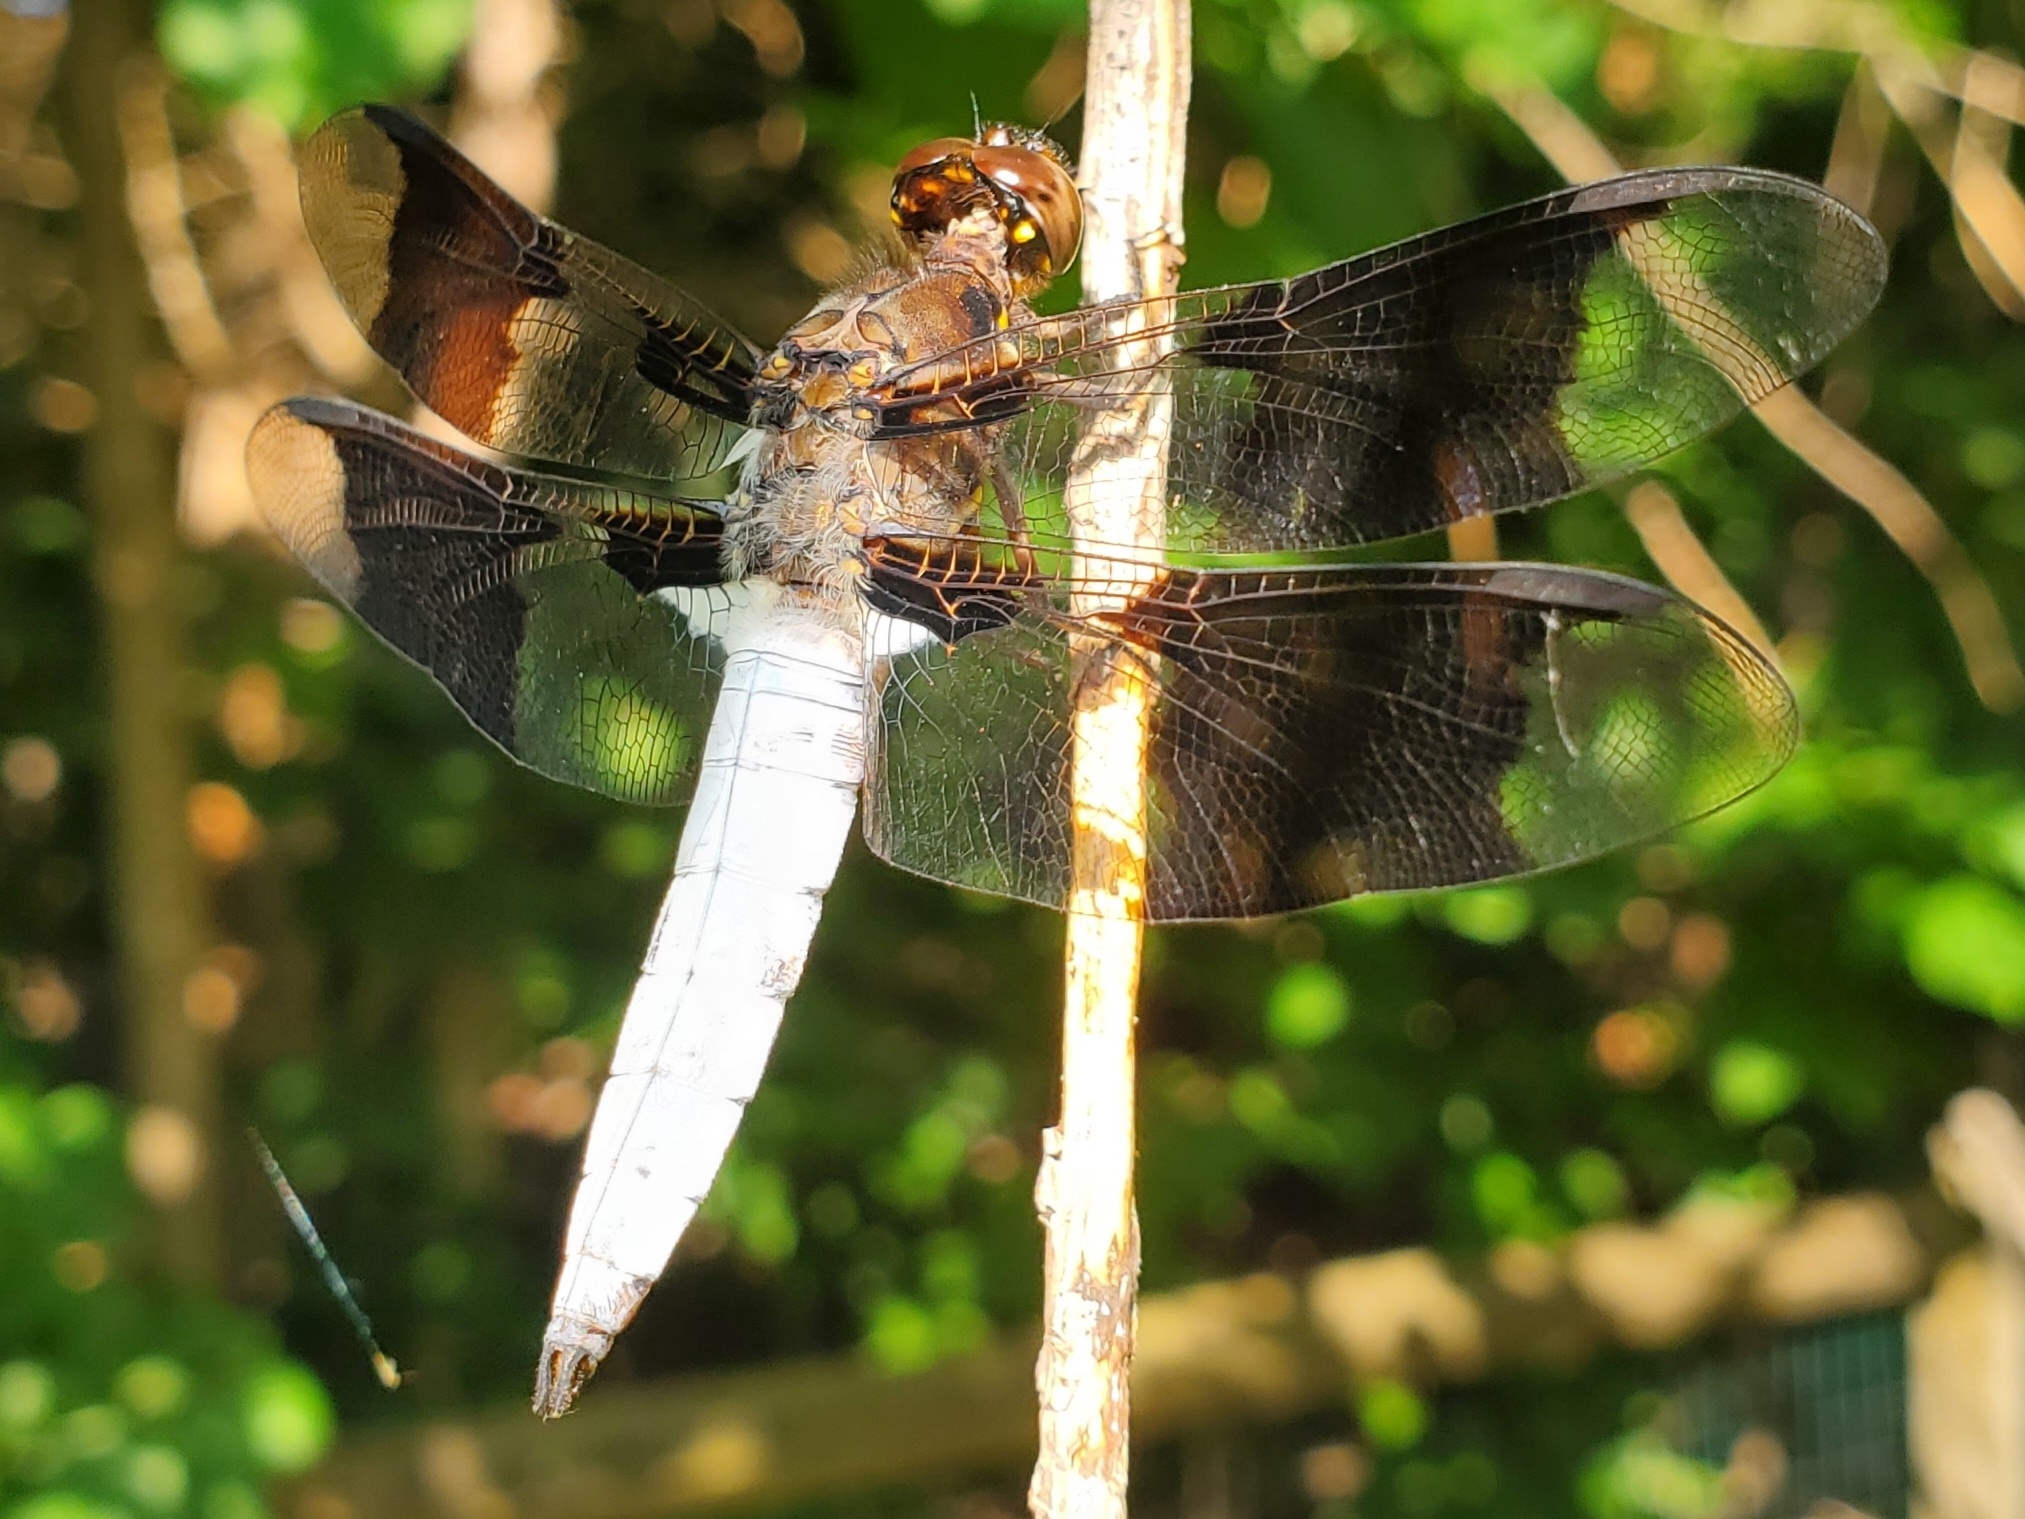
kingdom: Animalia
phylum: Arthropoda
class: Insecta
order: Odonata
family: Libellulidae
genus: Plathemis
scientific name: Plathemis lydia
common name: Common whitetail
